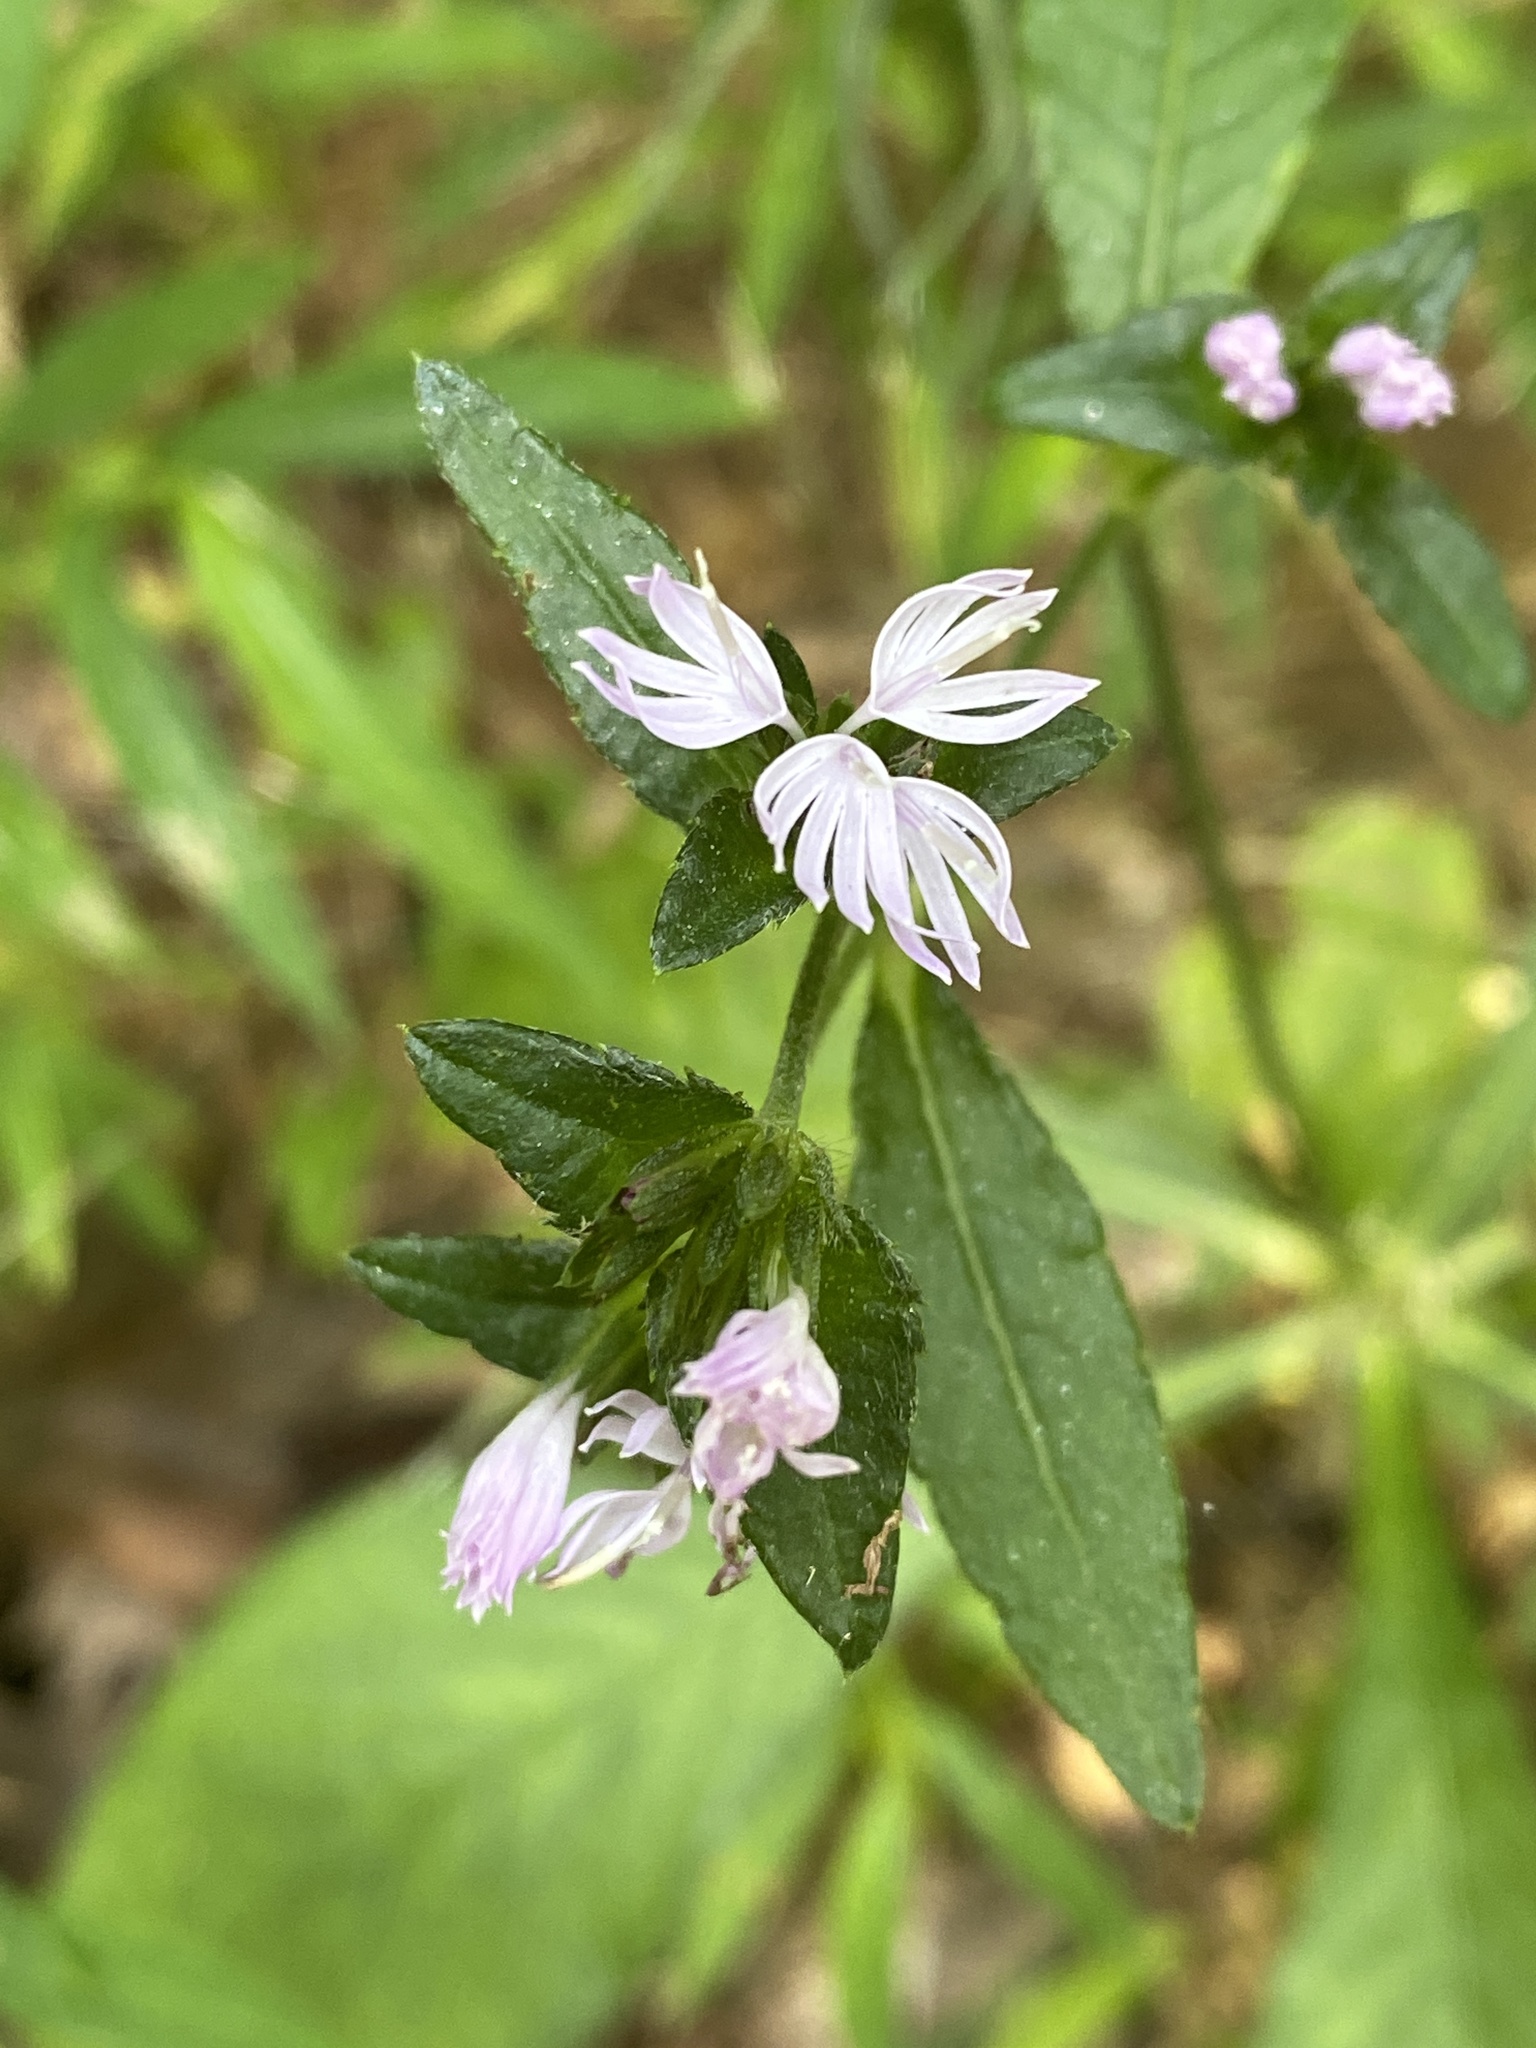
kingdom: Plantae
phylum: Tracheophyta
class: Magnoliopsida
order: Asterales
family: Asteraceae
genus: Elephantopus
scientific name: Elephantopus carolinianus
